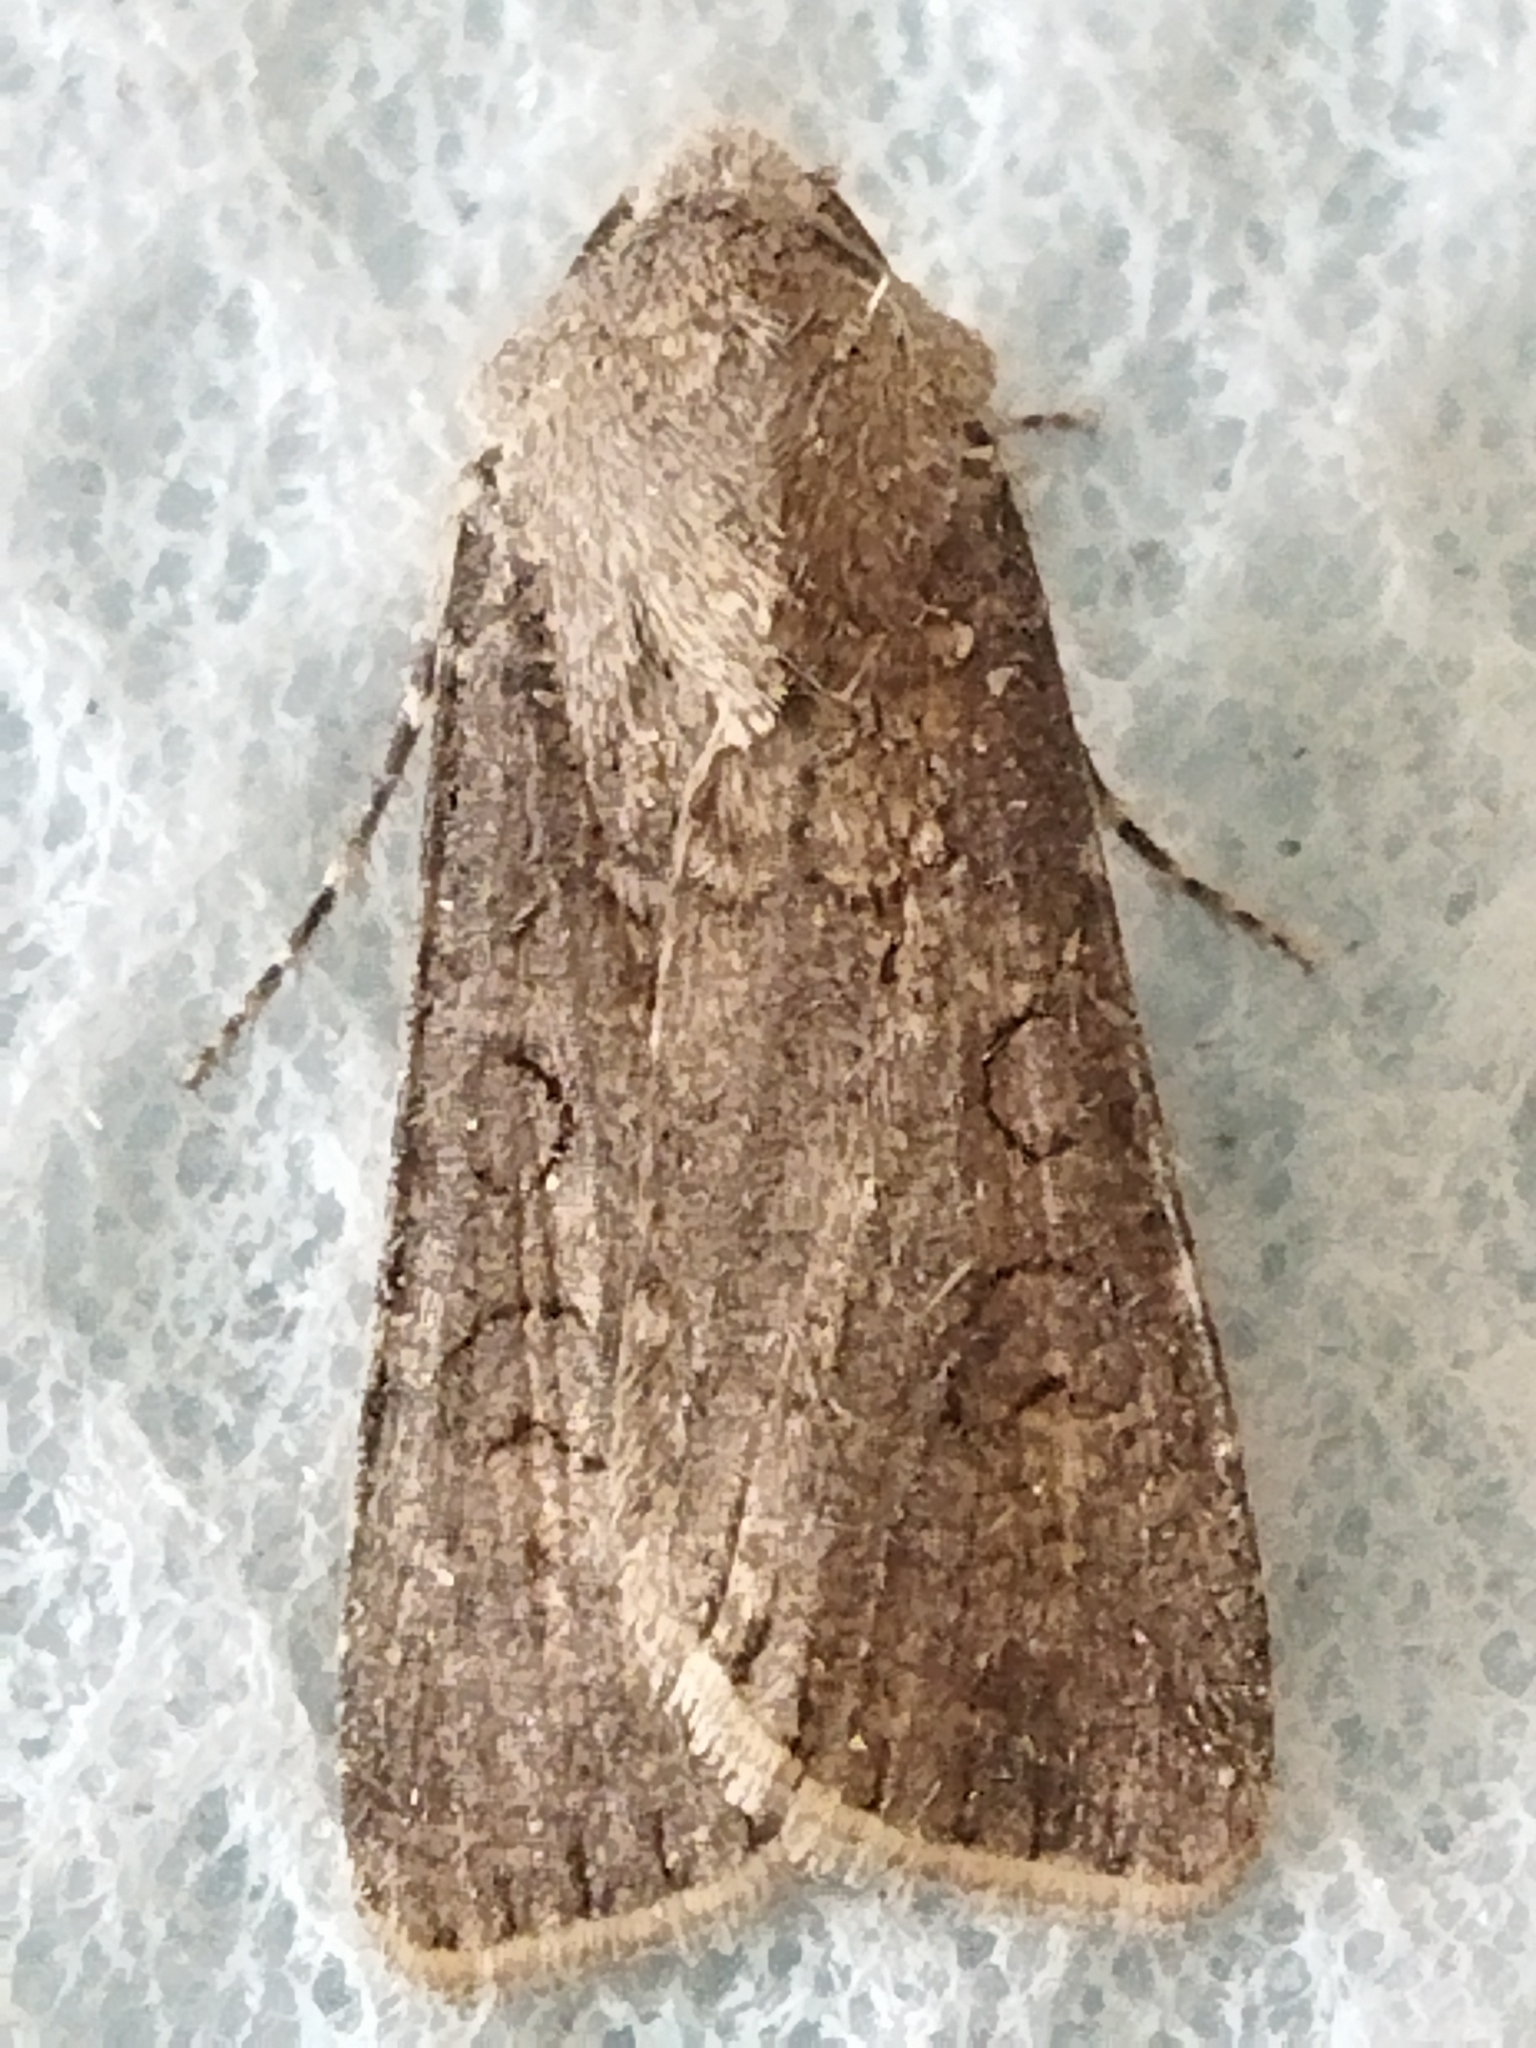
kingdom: Animalia
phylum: Arthropoda
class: Insecta
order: Lepidoptera
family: Noctuidae
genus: Agrotis
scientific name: Agrotis segetum
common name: Turnip moth
